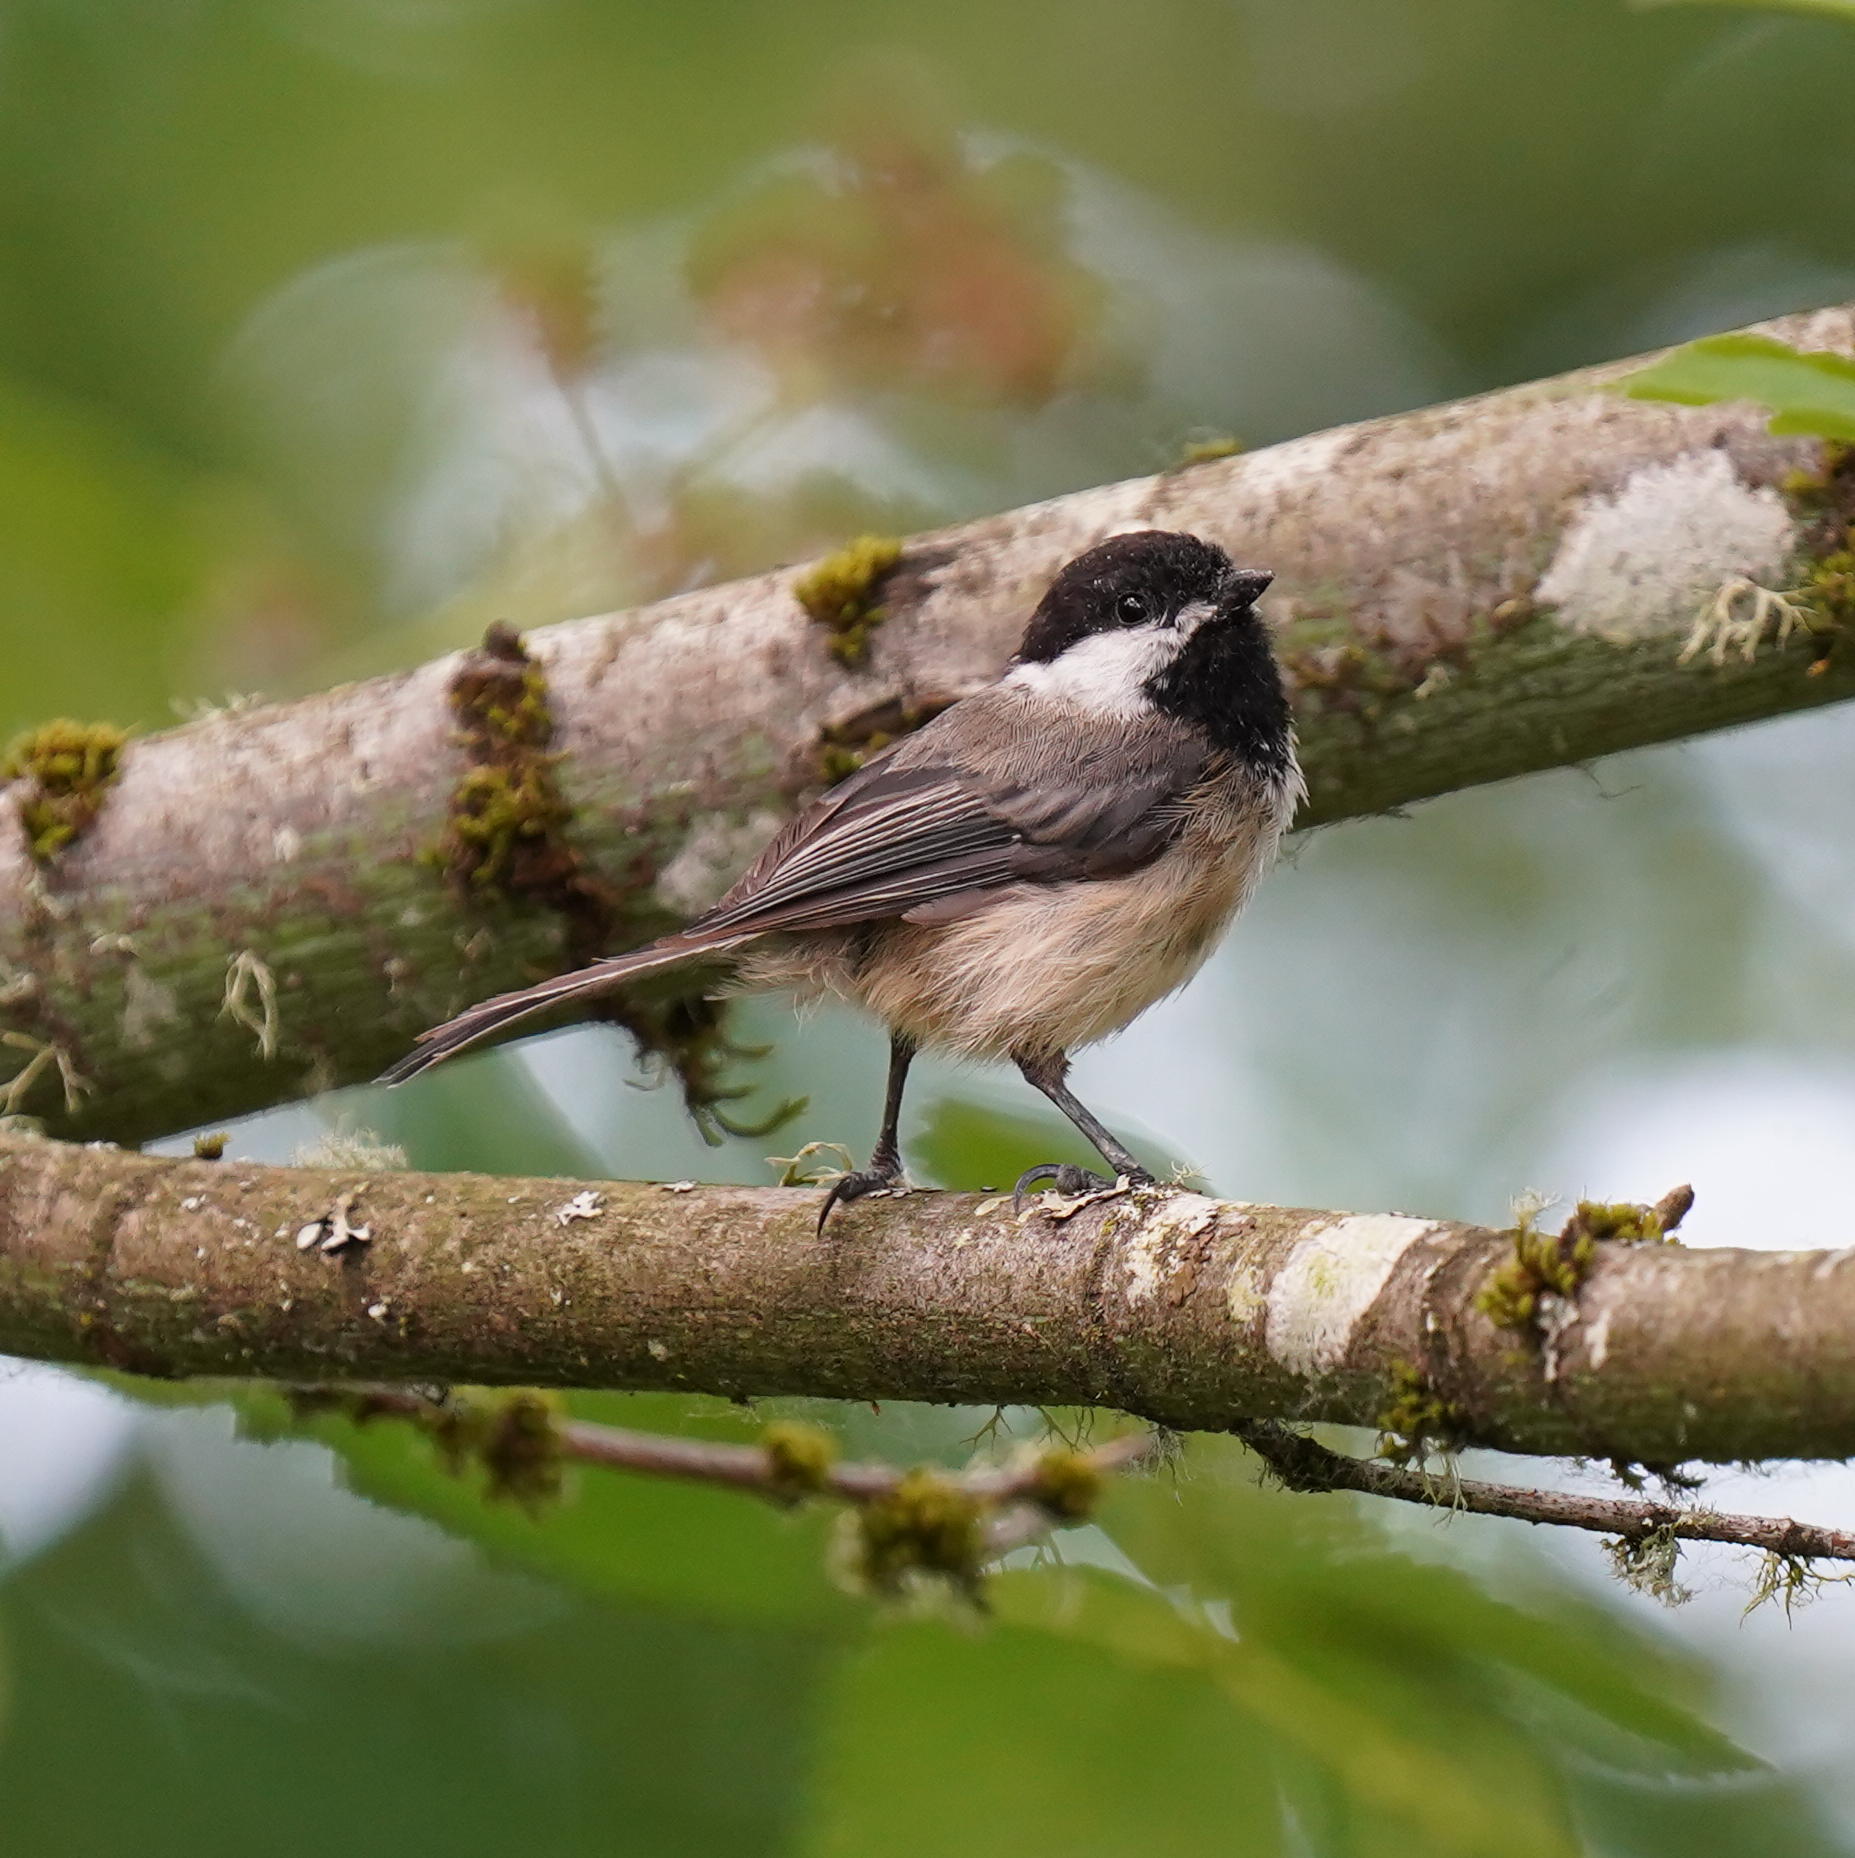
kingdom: Animalia
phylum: Chordata
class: Aves
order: Passeriformes
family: Paridae
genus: Poecile
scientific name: Poecile atricapillus
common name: Black-capped chickadee
